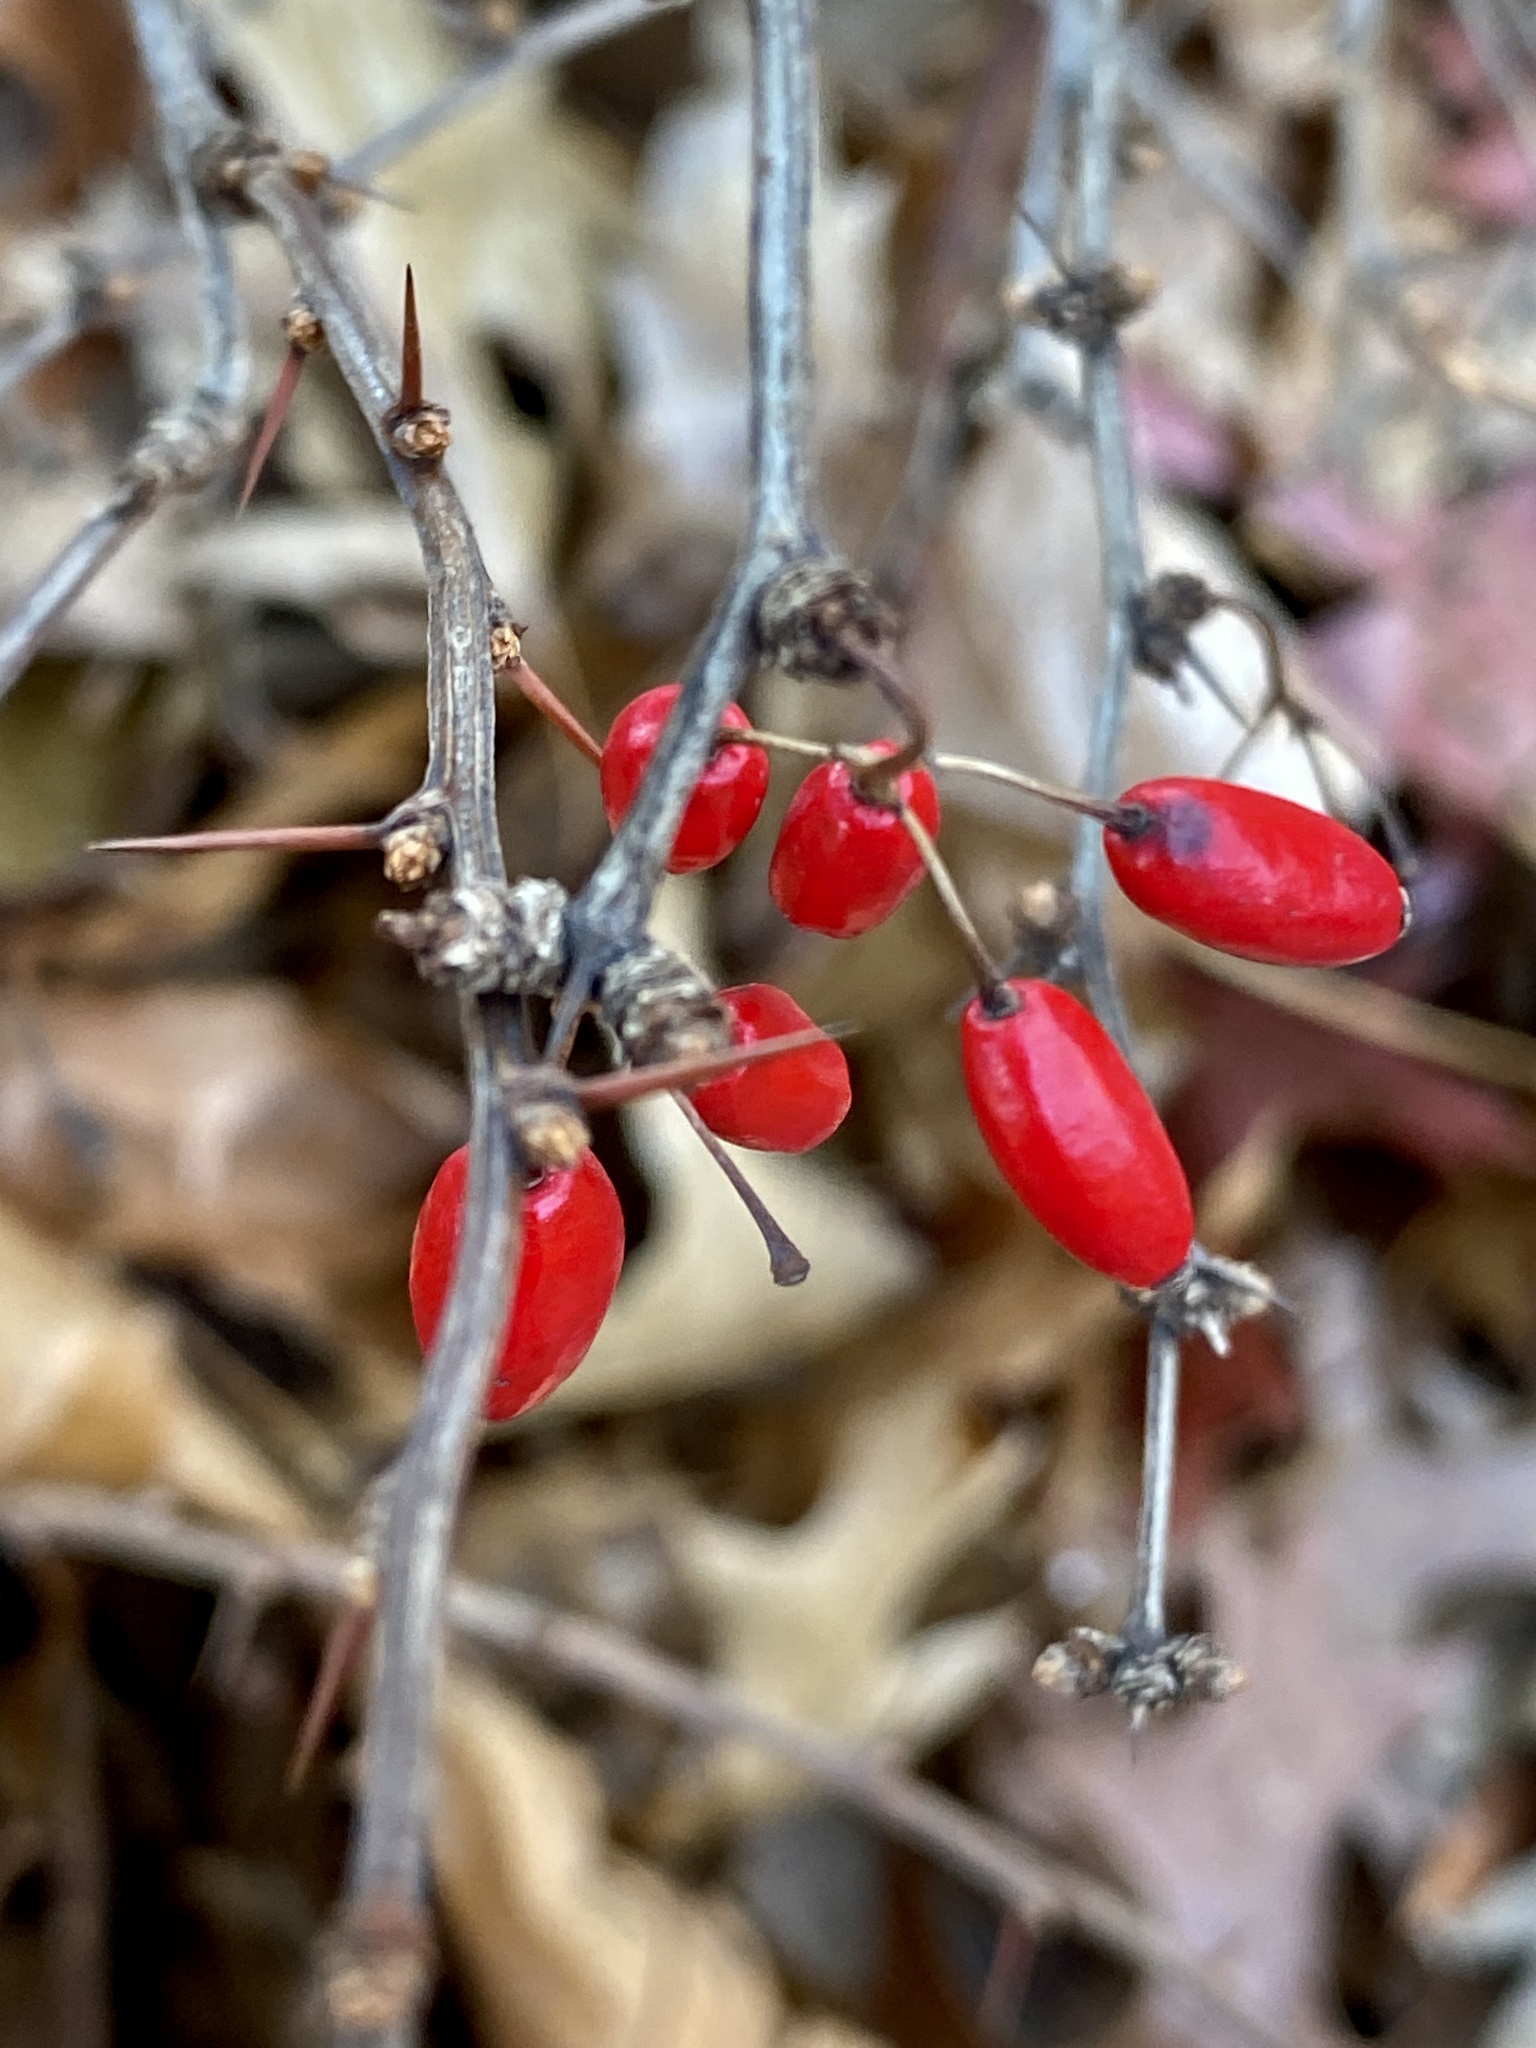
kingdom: Plantae
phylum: Tracheophyta
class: Magnoliopsida
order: Ranunculales
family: Berberidaceae
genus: Berberis
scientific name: Berberis thunbergii
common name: Japanese barberry
